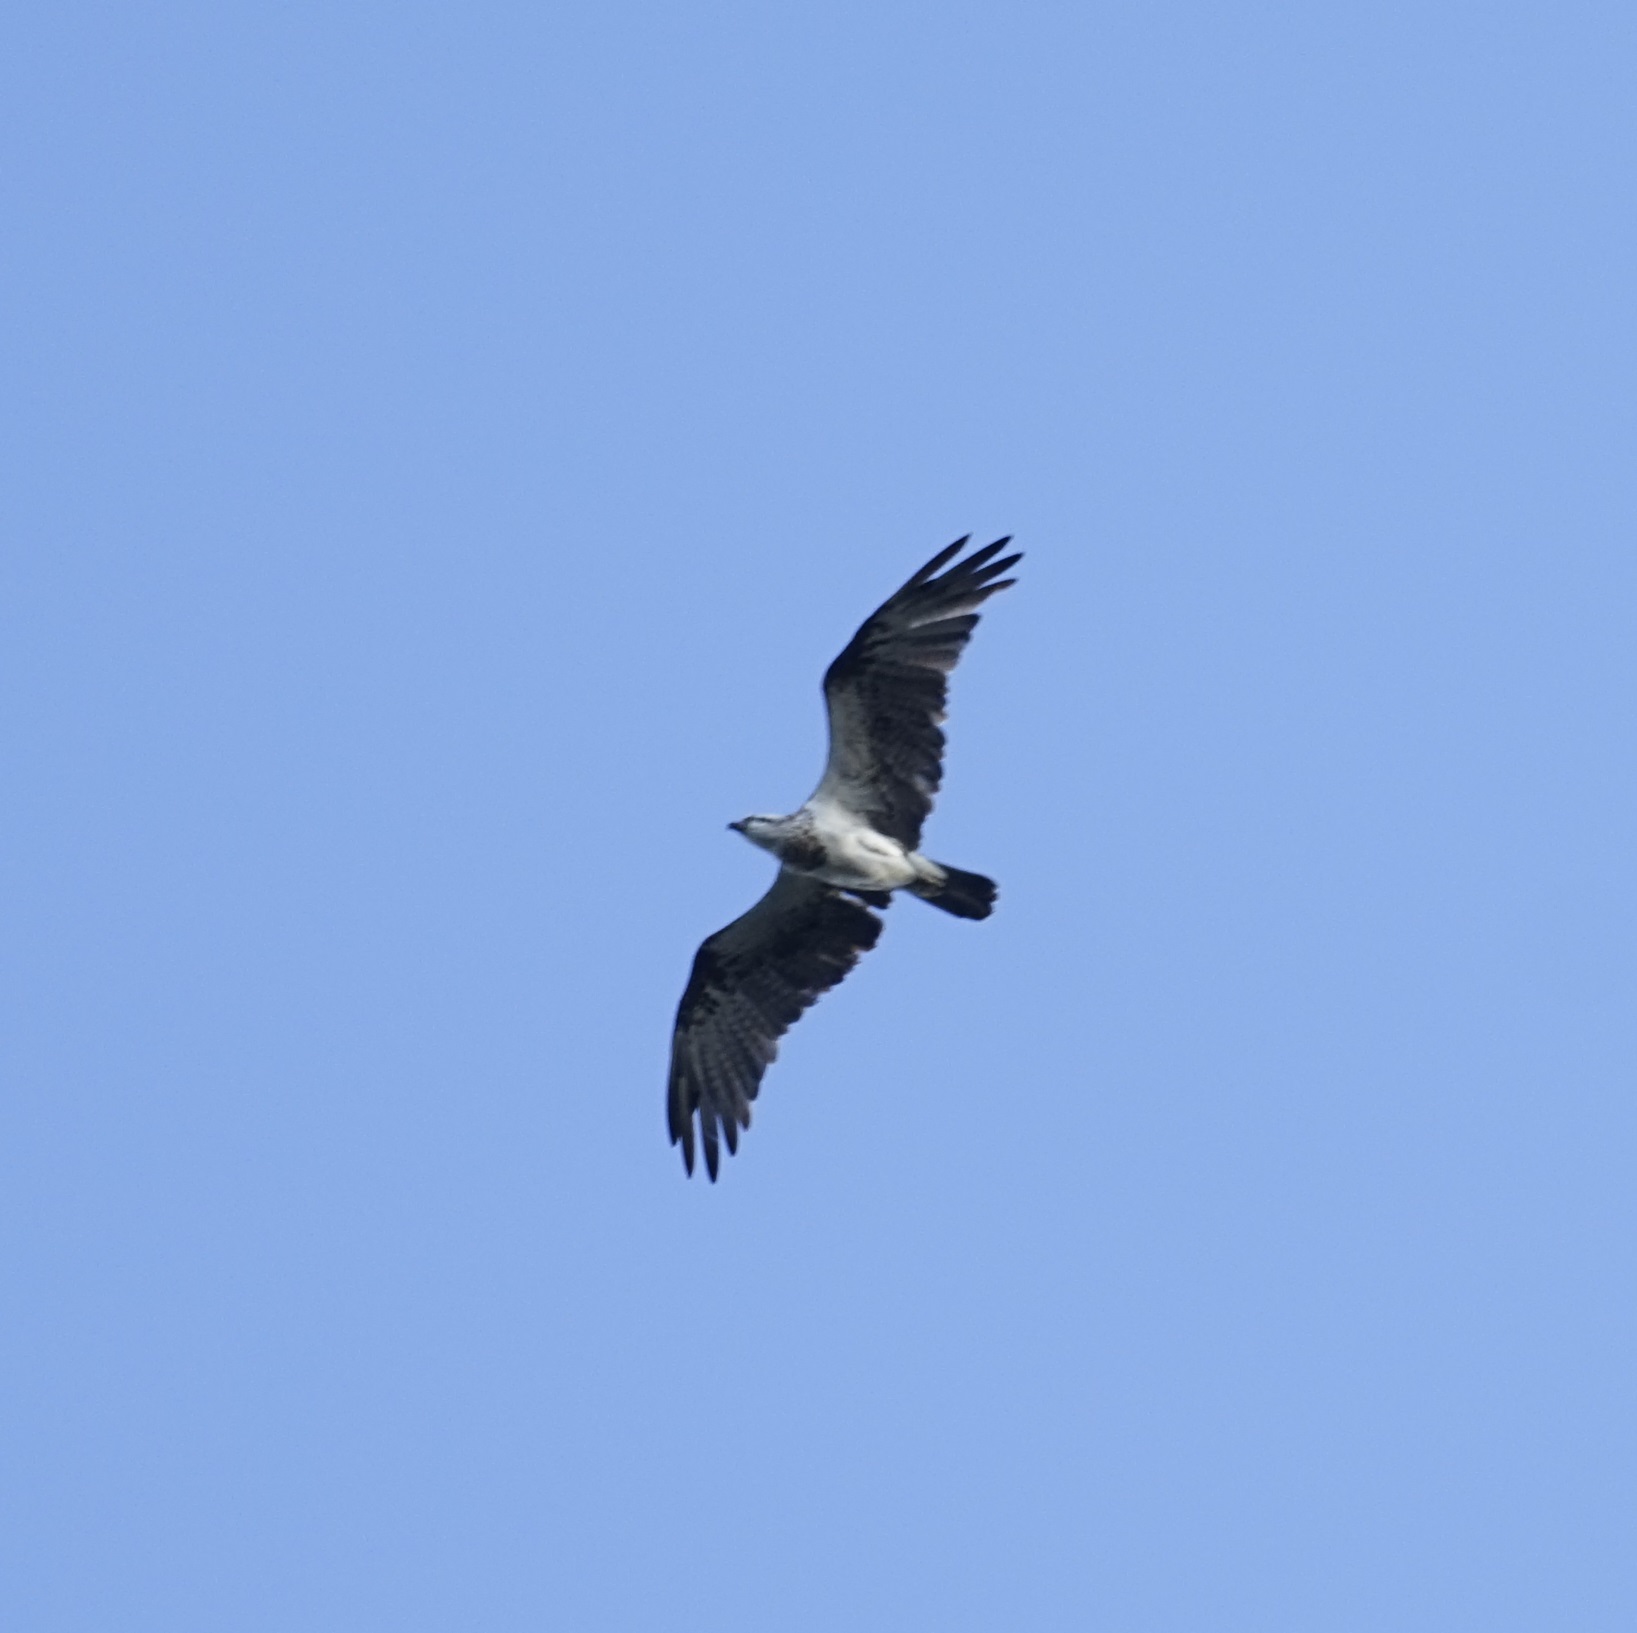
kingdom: Animalia
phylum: Chordata
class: Aves
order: Accipitriformes
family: Pandionidae
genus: Pandion
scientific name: Pandion cristatus
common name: Eastern osprey
